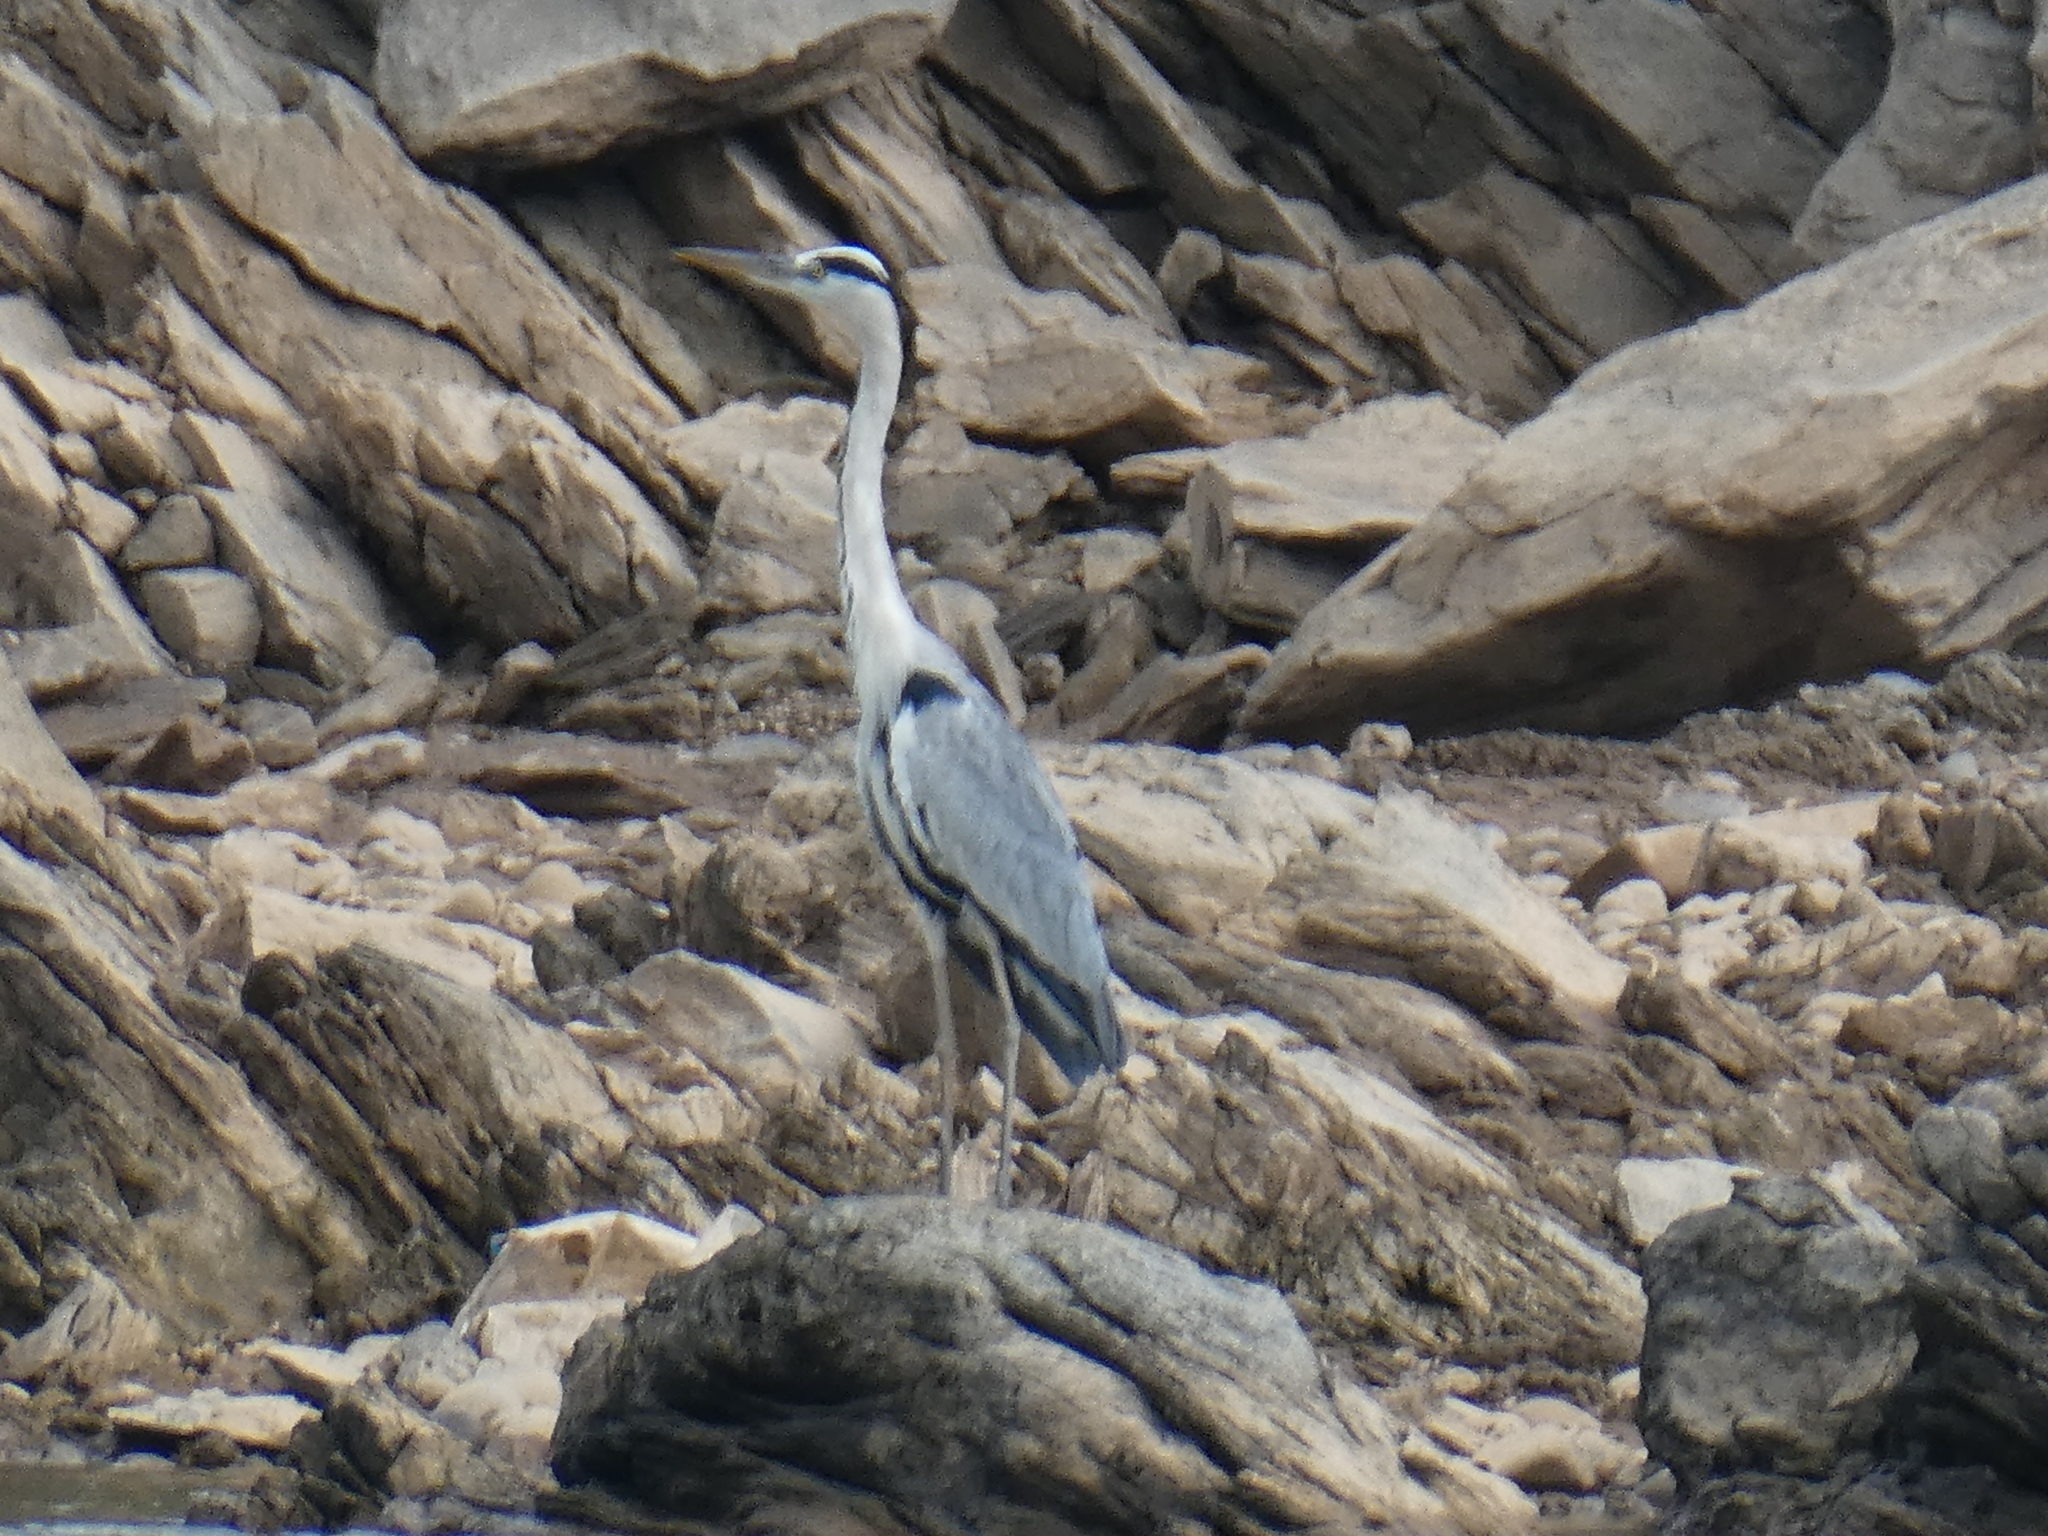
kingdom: Animalia
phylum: Chordata
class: Aves
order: Pelecaniformes
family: Ardeidae
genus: Ardea
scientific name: Ardea cinerea
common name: Grey heron
